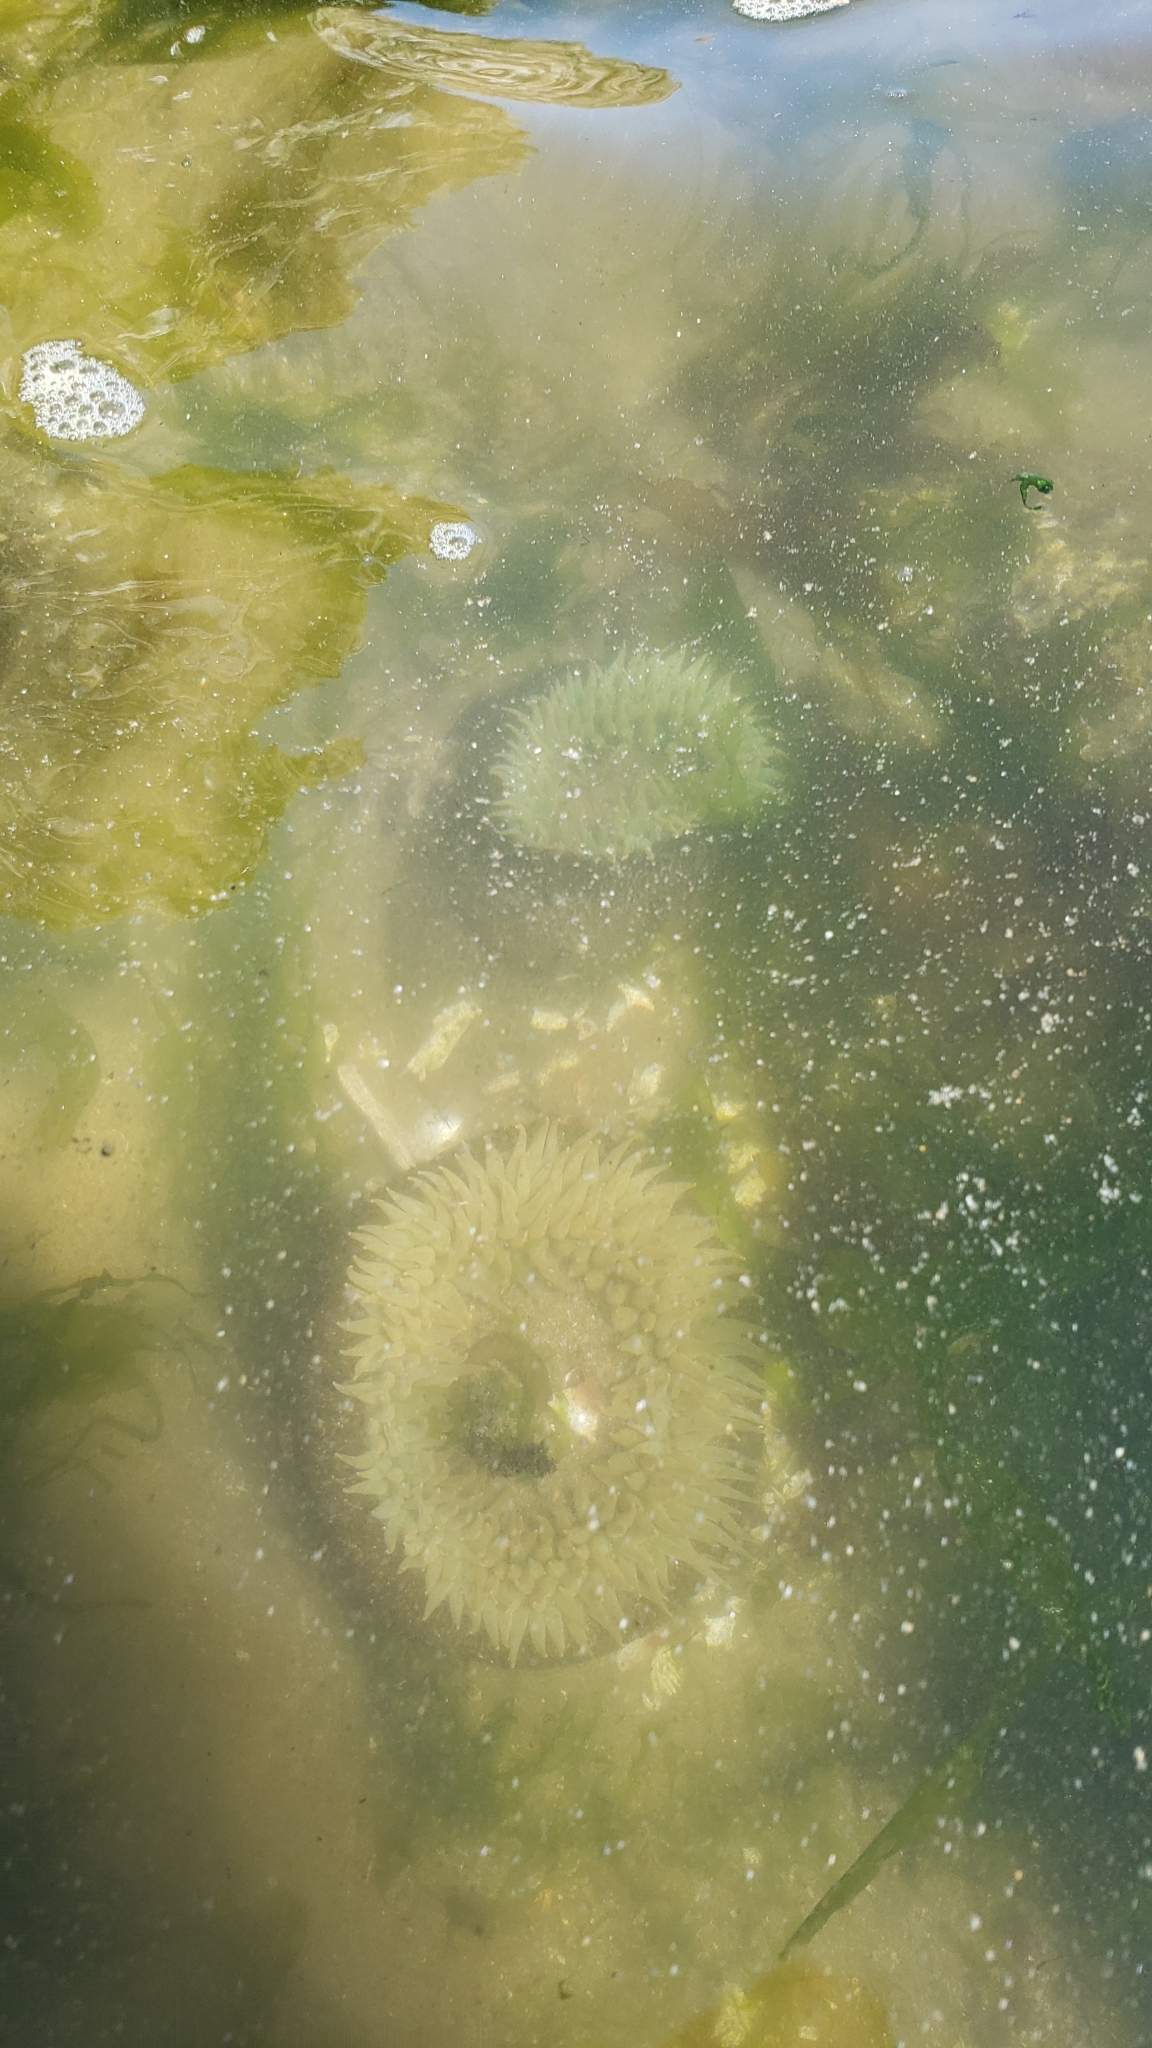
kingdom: Animalia
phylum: Cnidaria
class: Anthozoa
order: Actiniaria
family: Actiniidae
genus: Anthopleura
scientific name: Anthopleura xanthogrammica
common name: Giant green anemone
